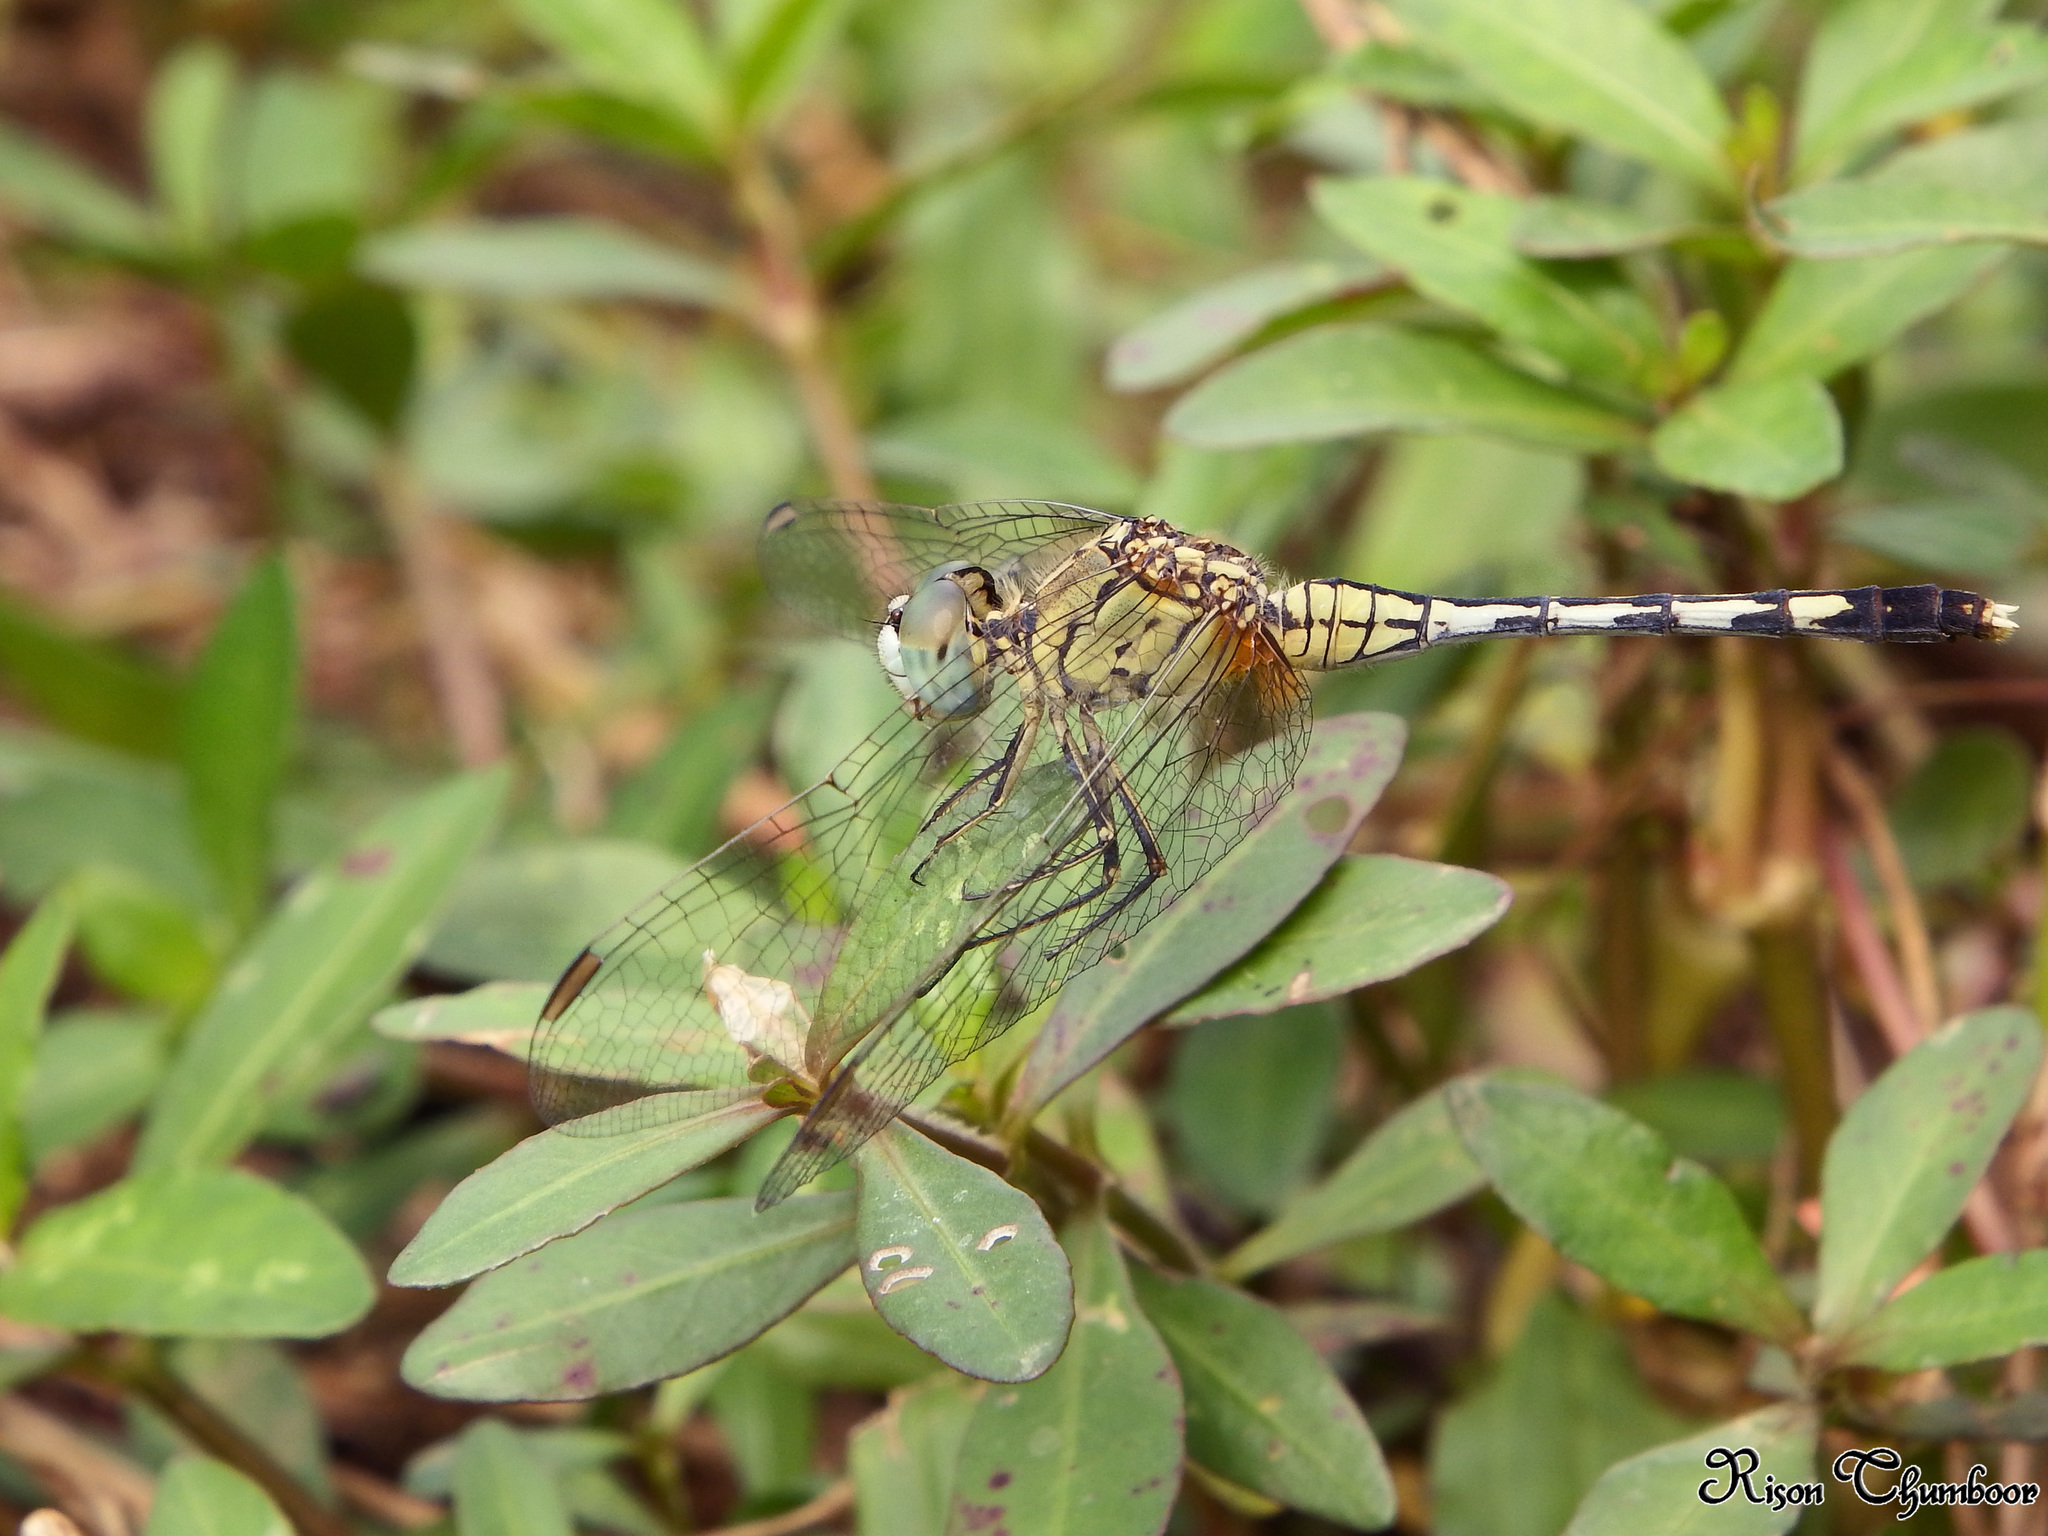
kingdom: Animalia
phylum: Arthropoda
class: Insecta
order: Odonata
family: Libellulidae
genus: Diplacodes
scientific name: Diplacodes trivialis
